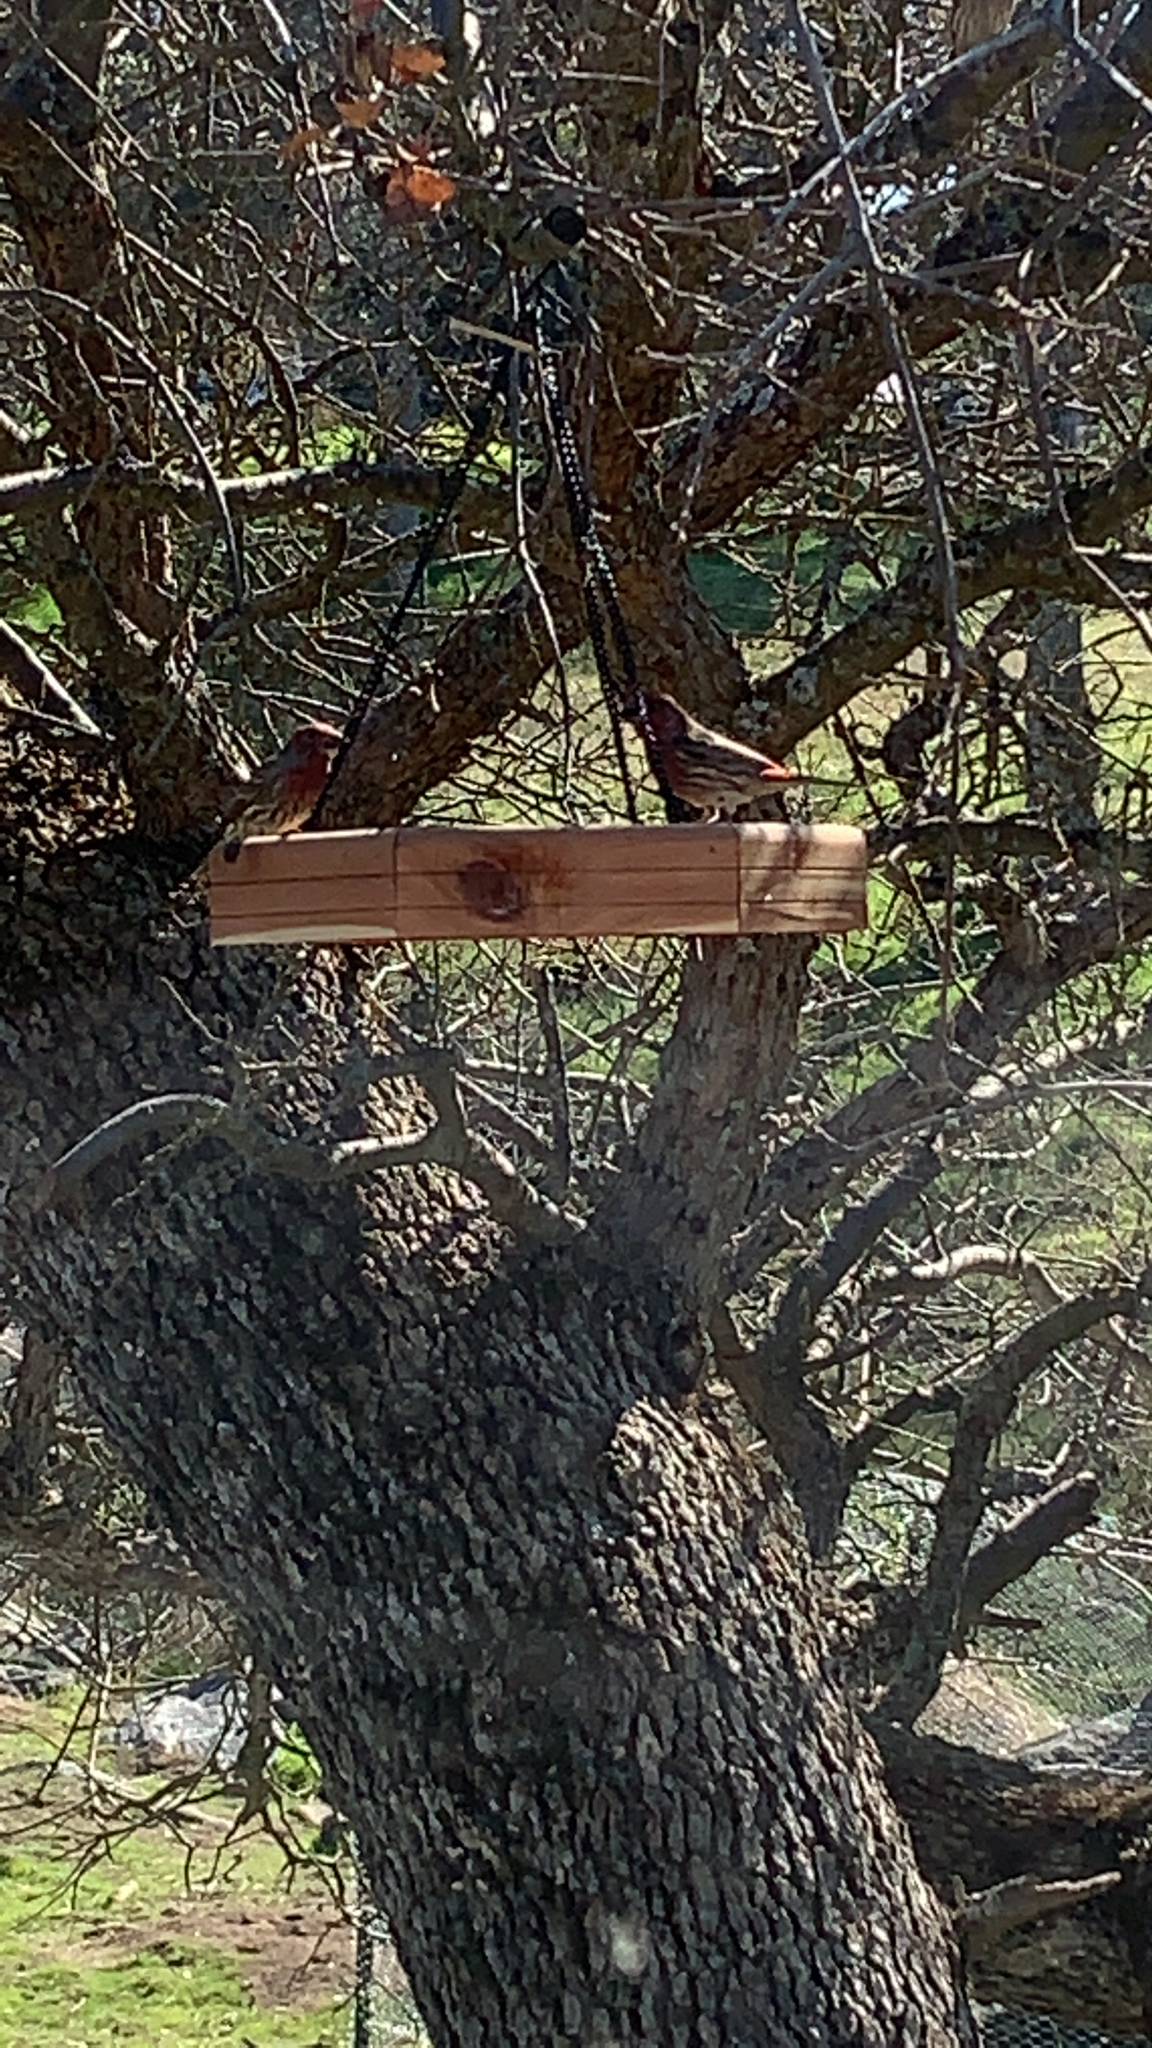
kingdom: Animalia
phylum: Chordata
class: Aves
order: Passeriformes
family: Fringillidae
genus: Haemorhous
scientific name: Haemorhous mexicanus
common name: House finch
